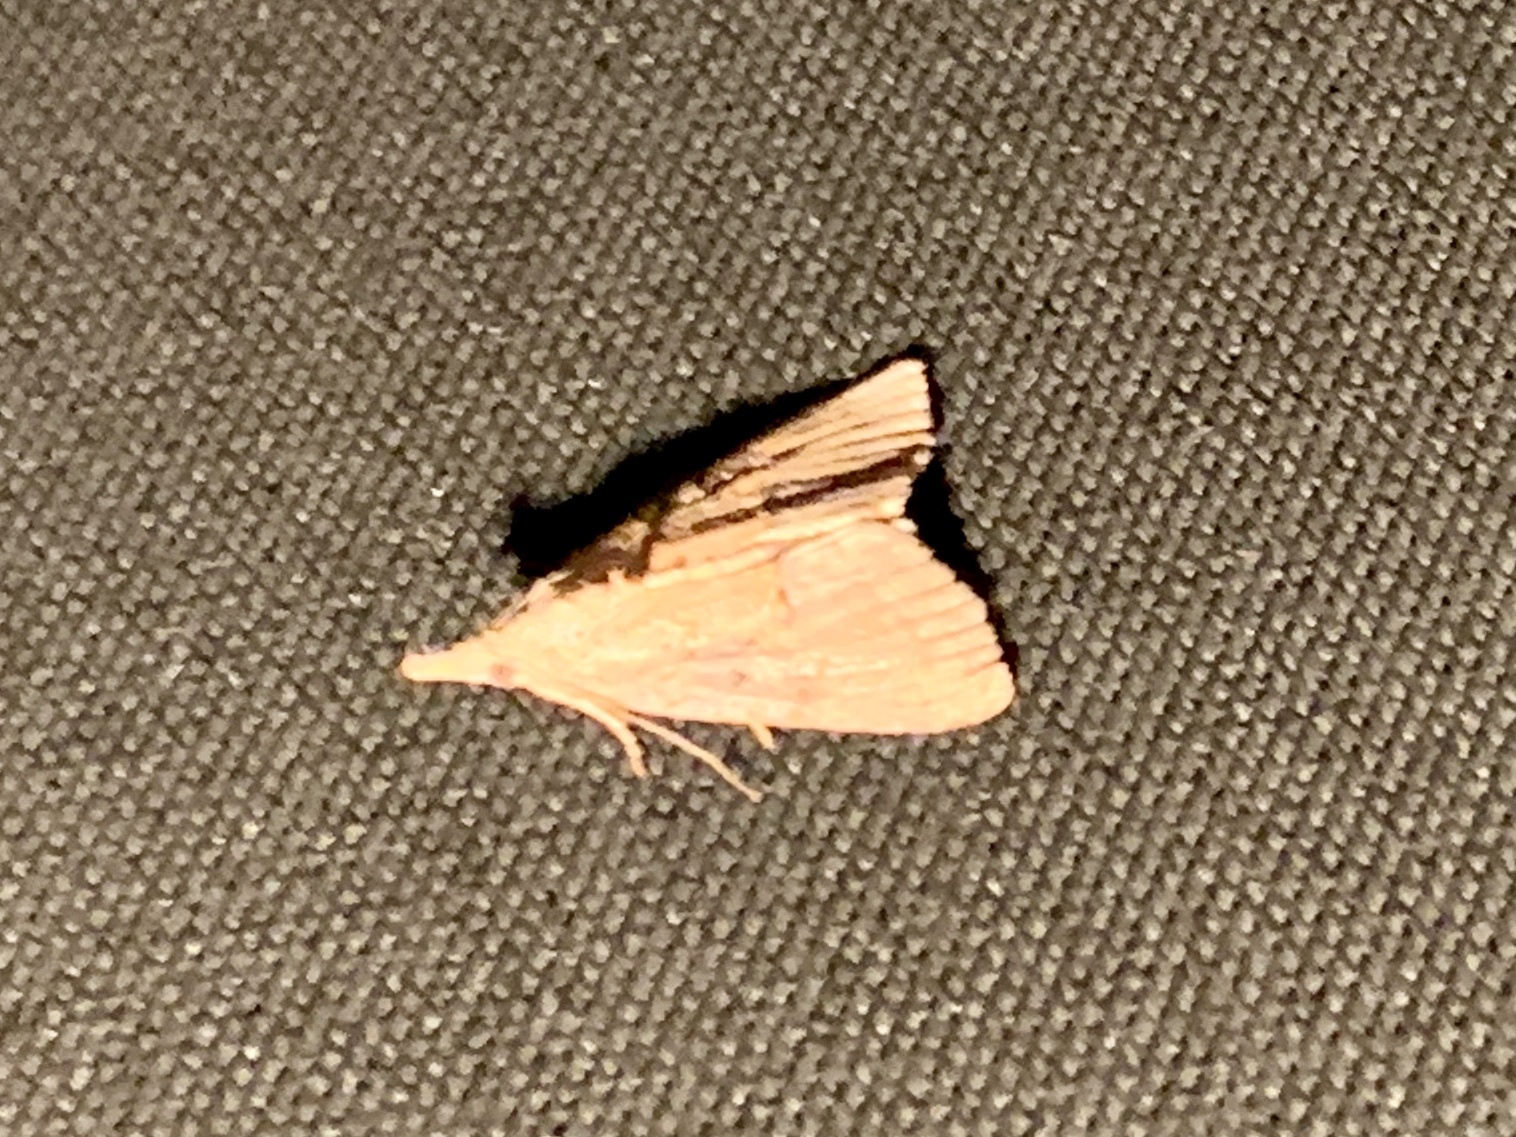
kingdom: Animalia
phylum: Arthropoda
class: Insecta
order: Lepidoptera
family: Erebidae
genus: Hypena
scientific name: Hypena scabra
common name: Green cloverworm
